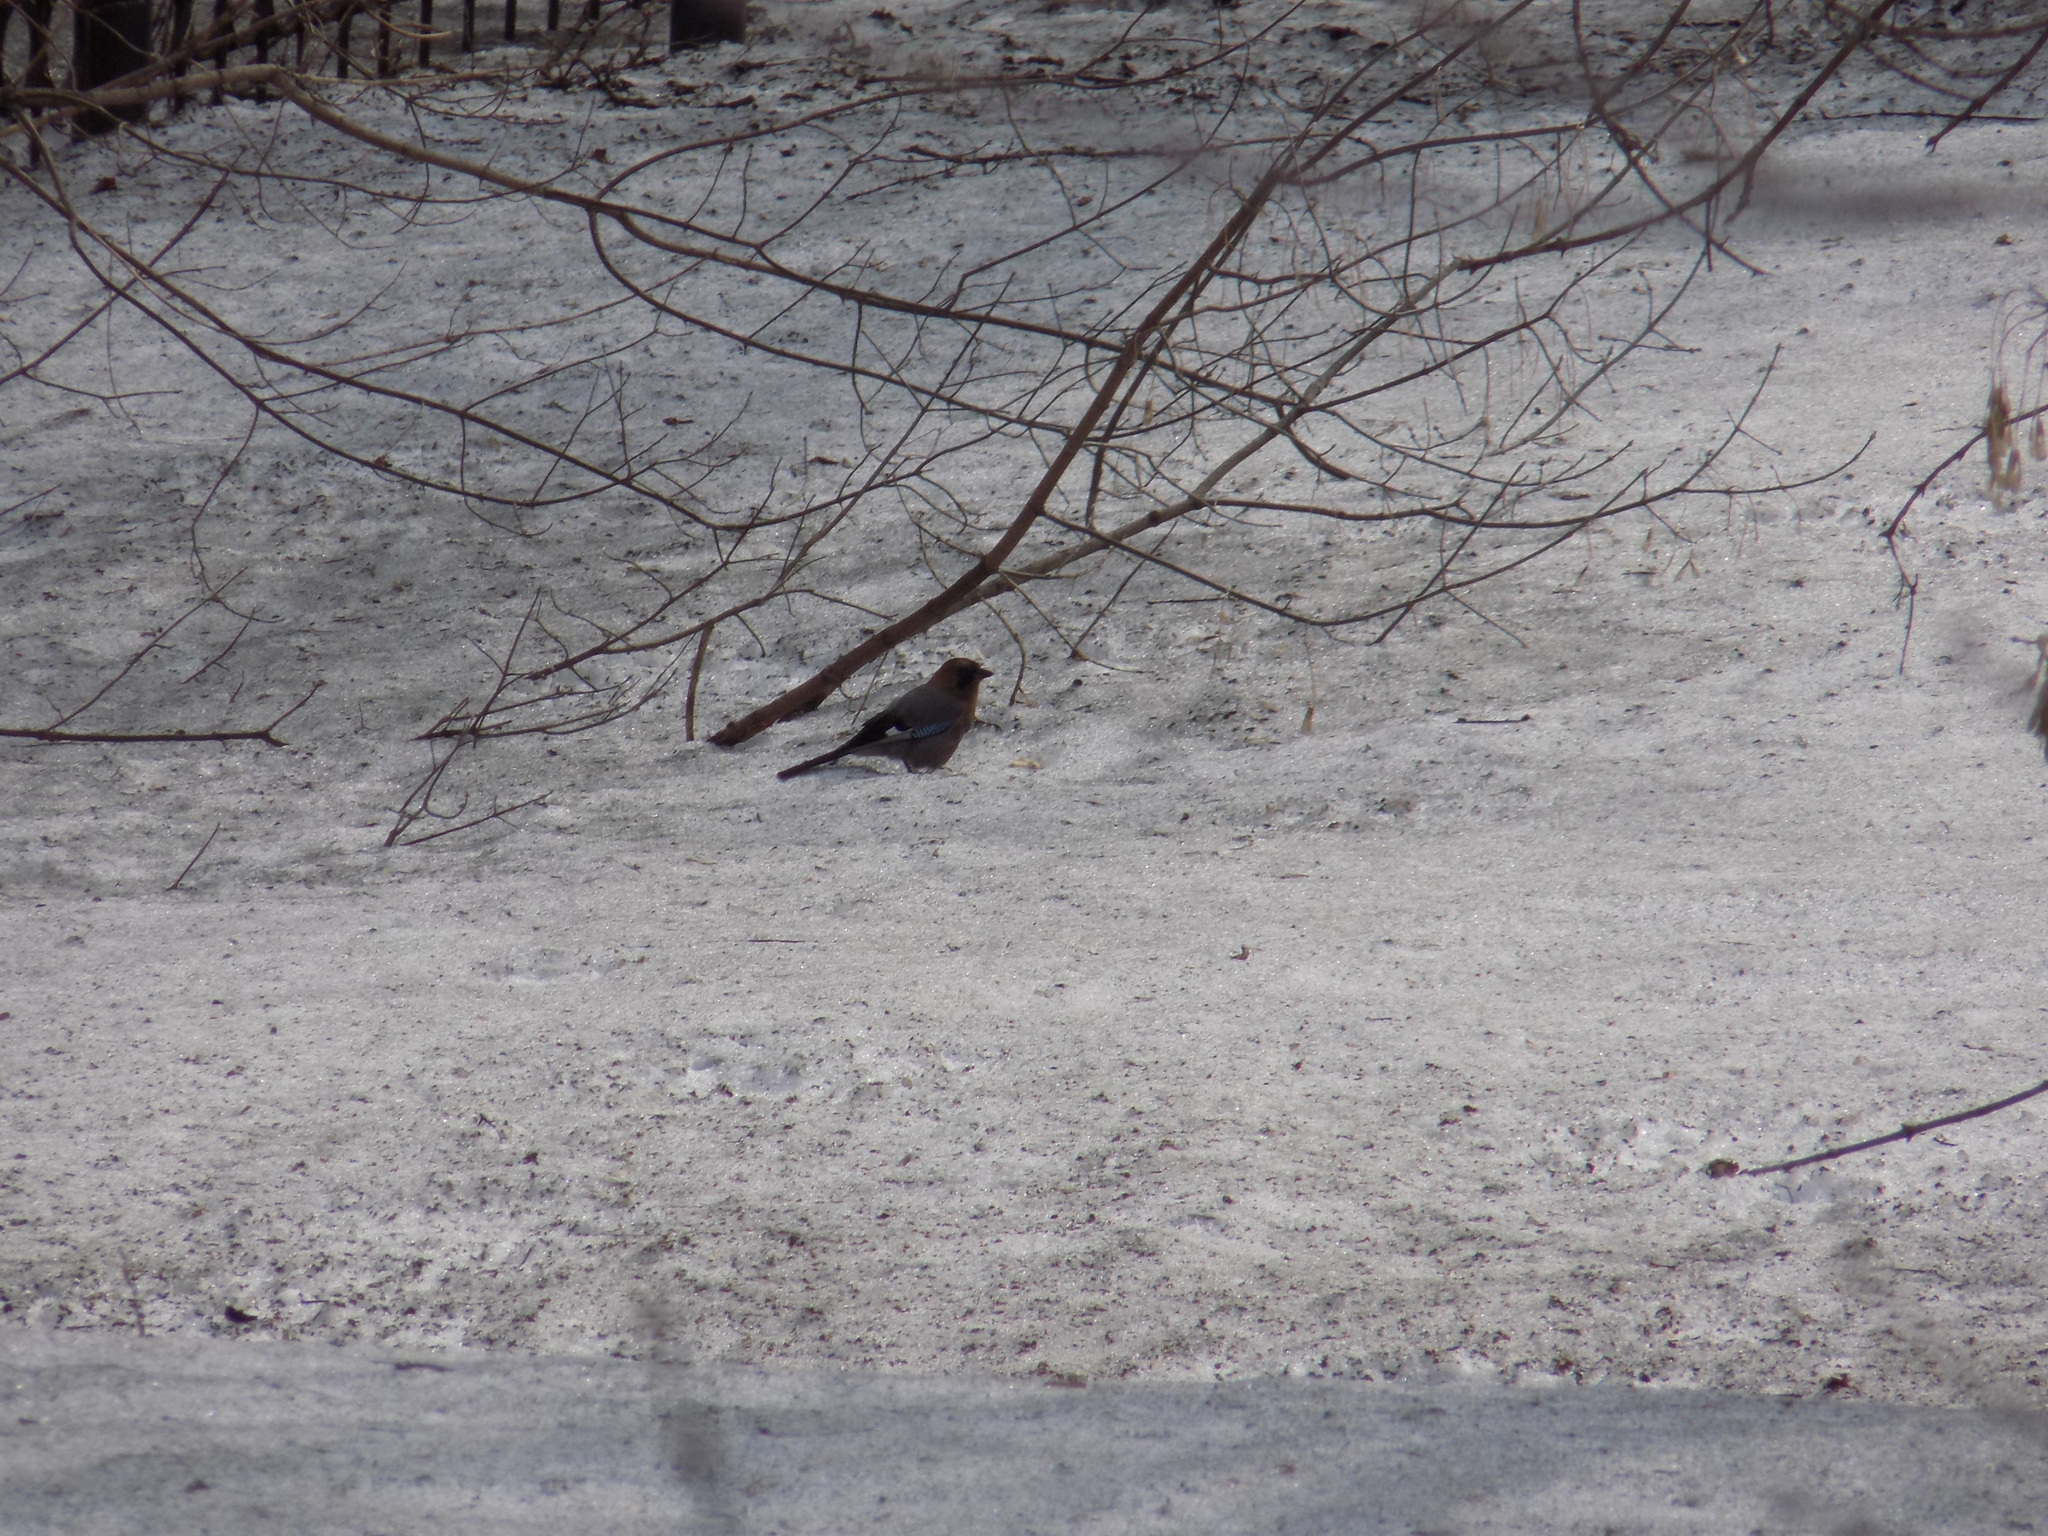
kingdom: Animalia
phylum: Chordata
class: Aves
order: Passeriformes
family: Corvidae
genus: Garrulus
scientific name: Garrulus glandarius
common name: Eurasian jay
